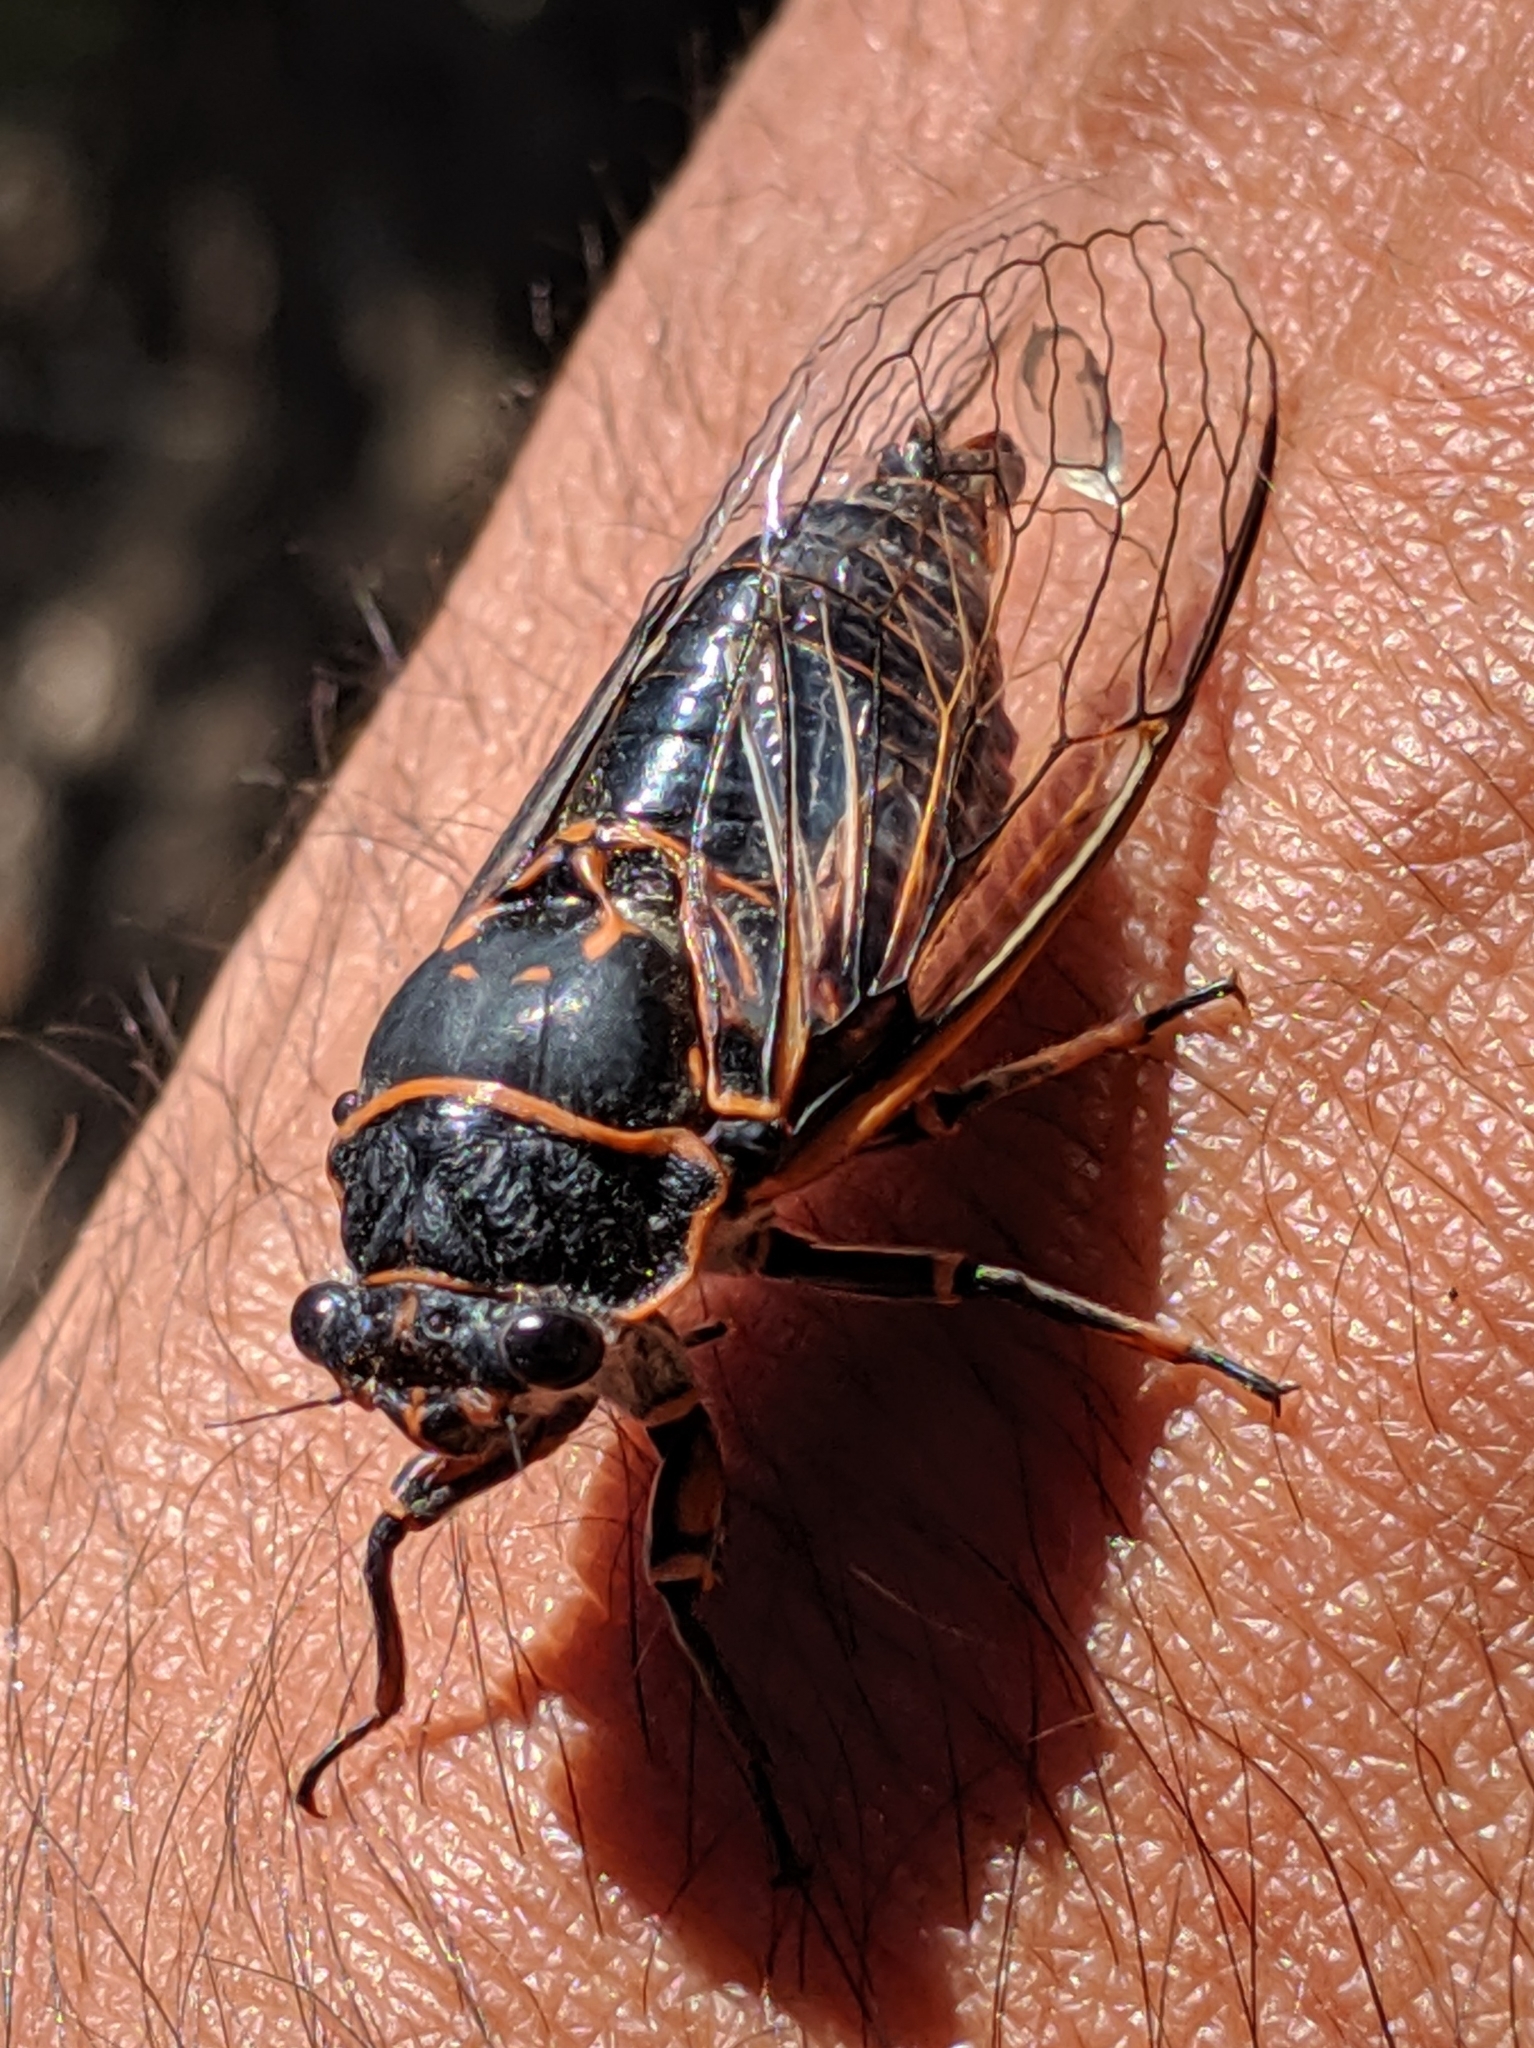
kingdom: Animalia
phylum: Arthropoda
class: Insecta
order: Hemiptera
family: Cicadidae
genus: Okanagana
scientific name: Okanagana bella
